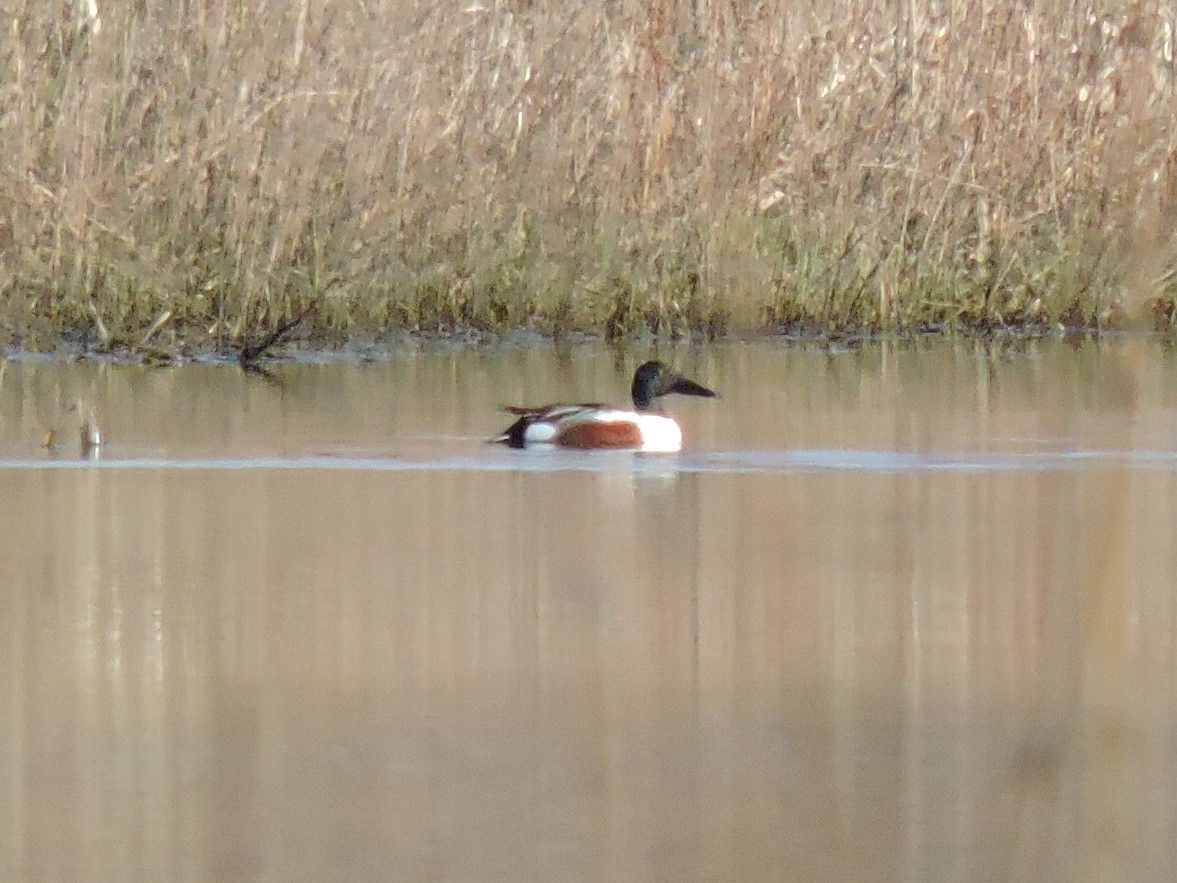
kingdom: Animalia
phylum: Chordata
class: Aves
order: Anseriformes
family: Anatidae
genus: Spatula
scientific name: Spatula clypeata
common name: Northern shoveler
